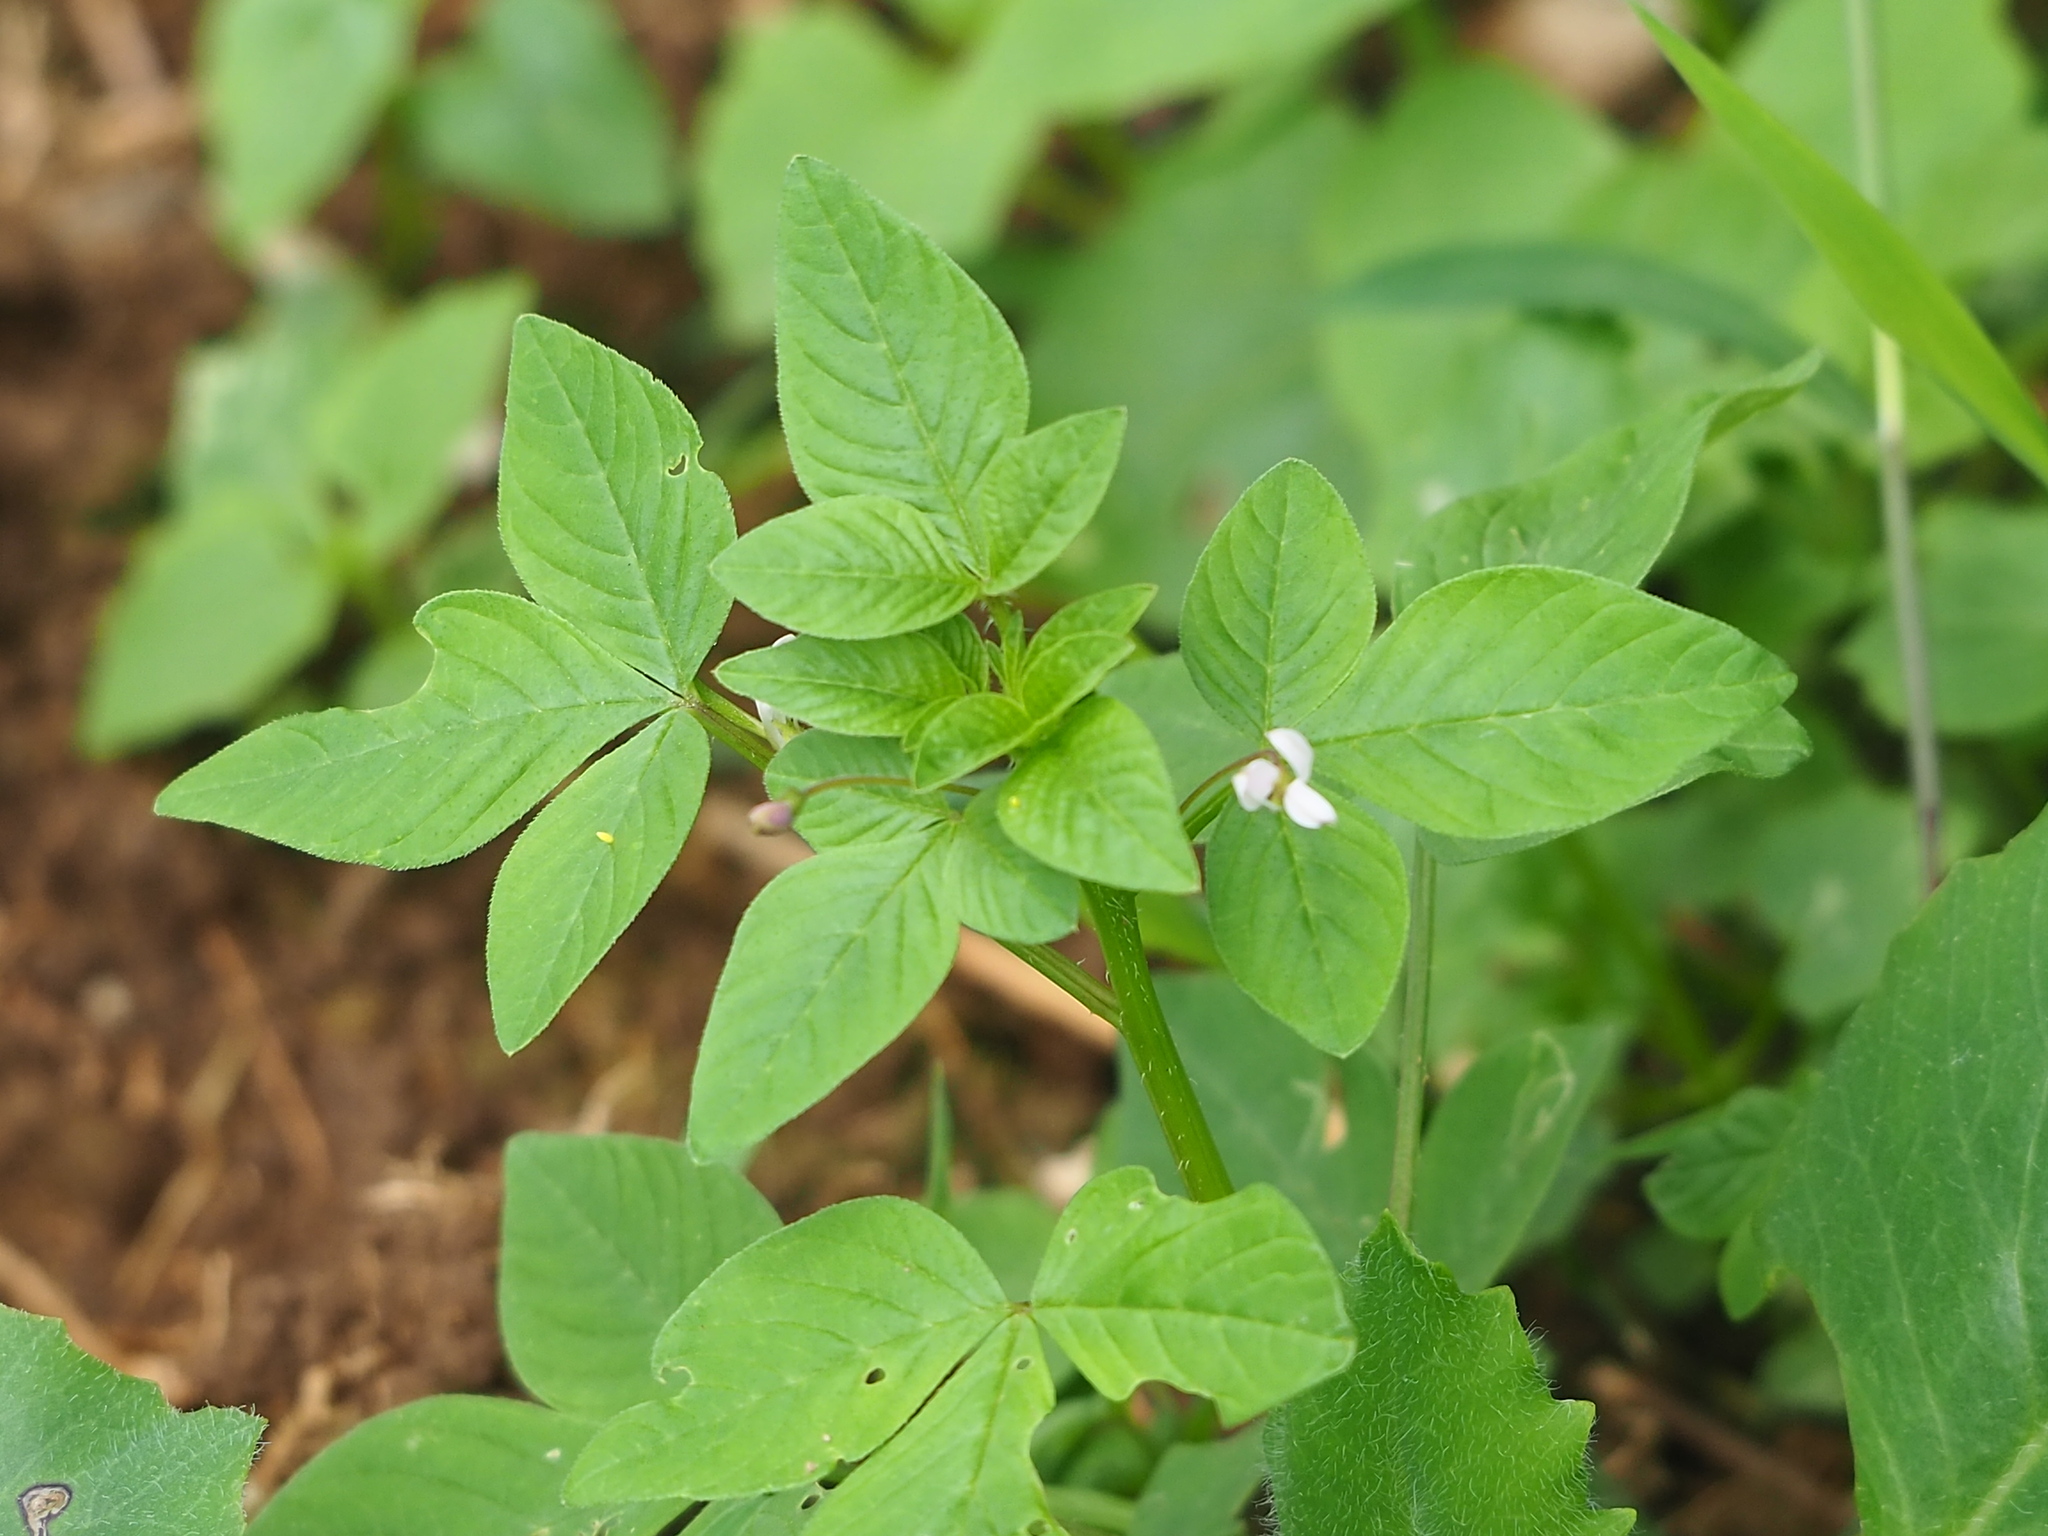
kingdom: Plantae
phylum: Tracheophyta
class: Magnoliopsida
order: Brassicales
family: Cleomaceae
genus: Sieruela
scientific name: Sieruela rutidosperma
